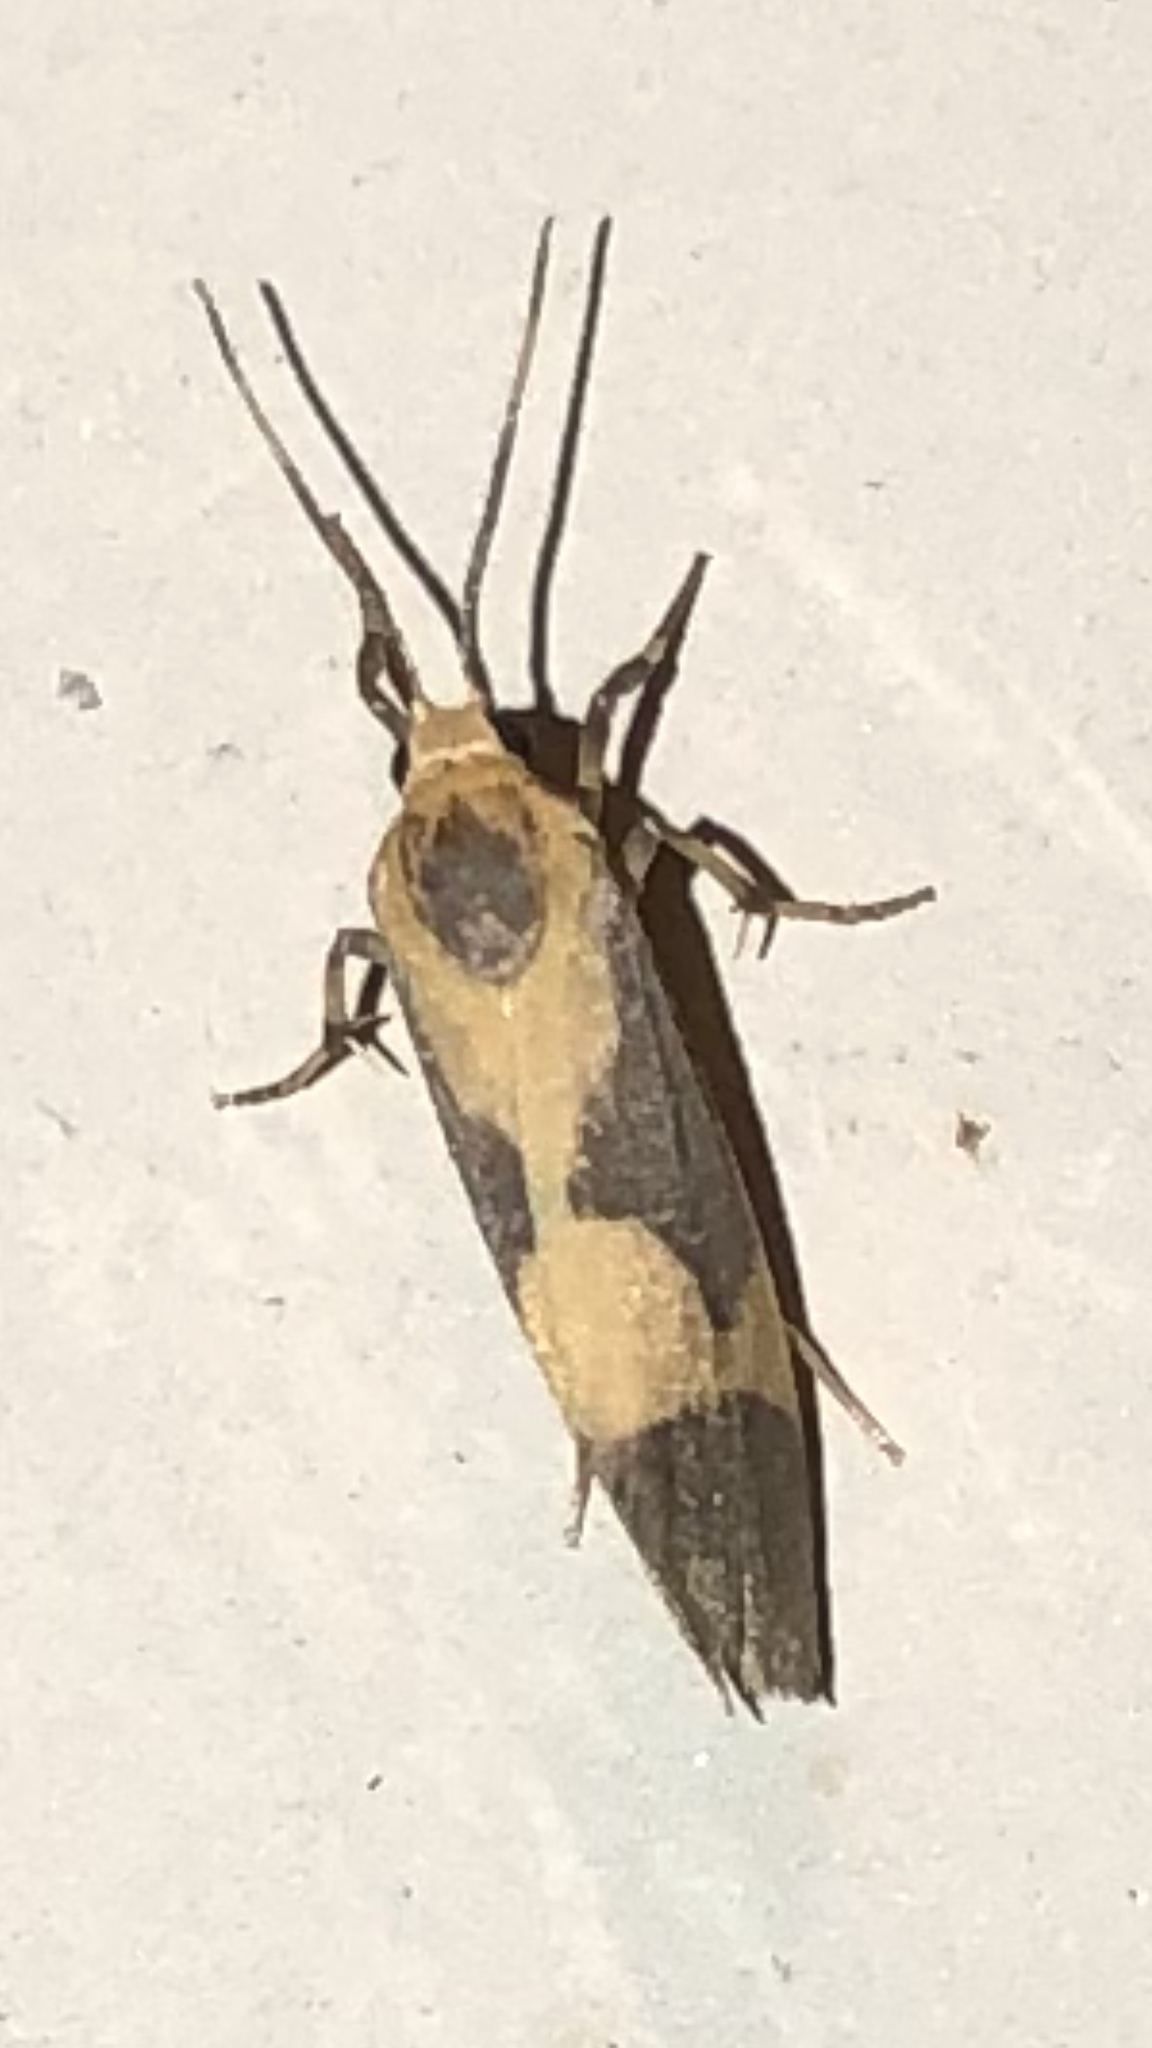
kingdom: Animalia
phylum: Arthropoda
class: Insecta
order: Lepidoptera
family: Erebidae
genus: Cisthene
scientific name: Cisthene unifascia
